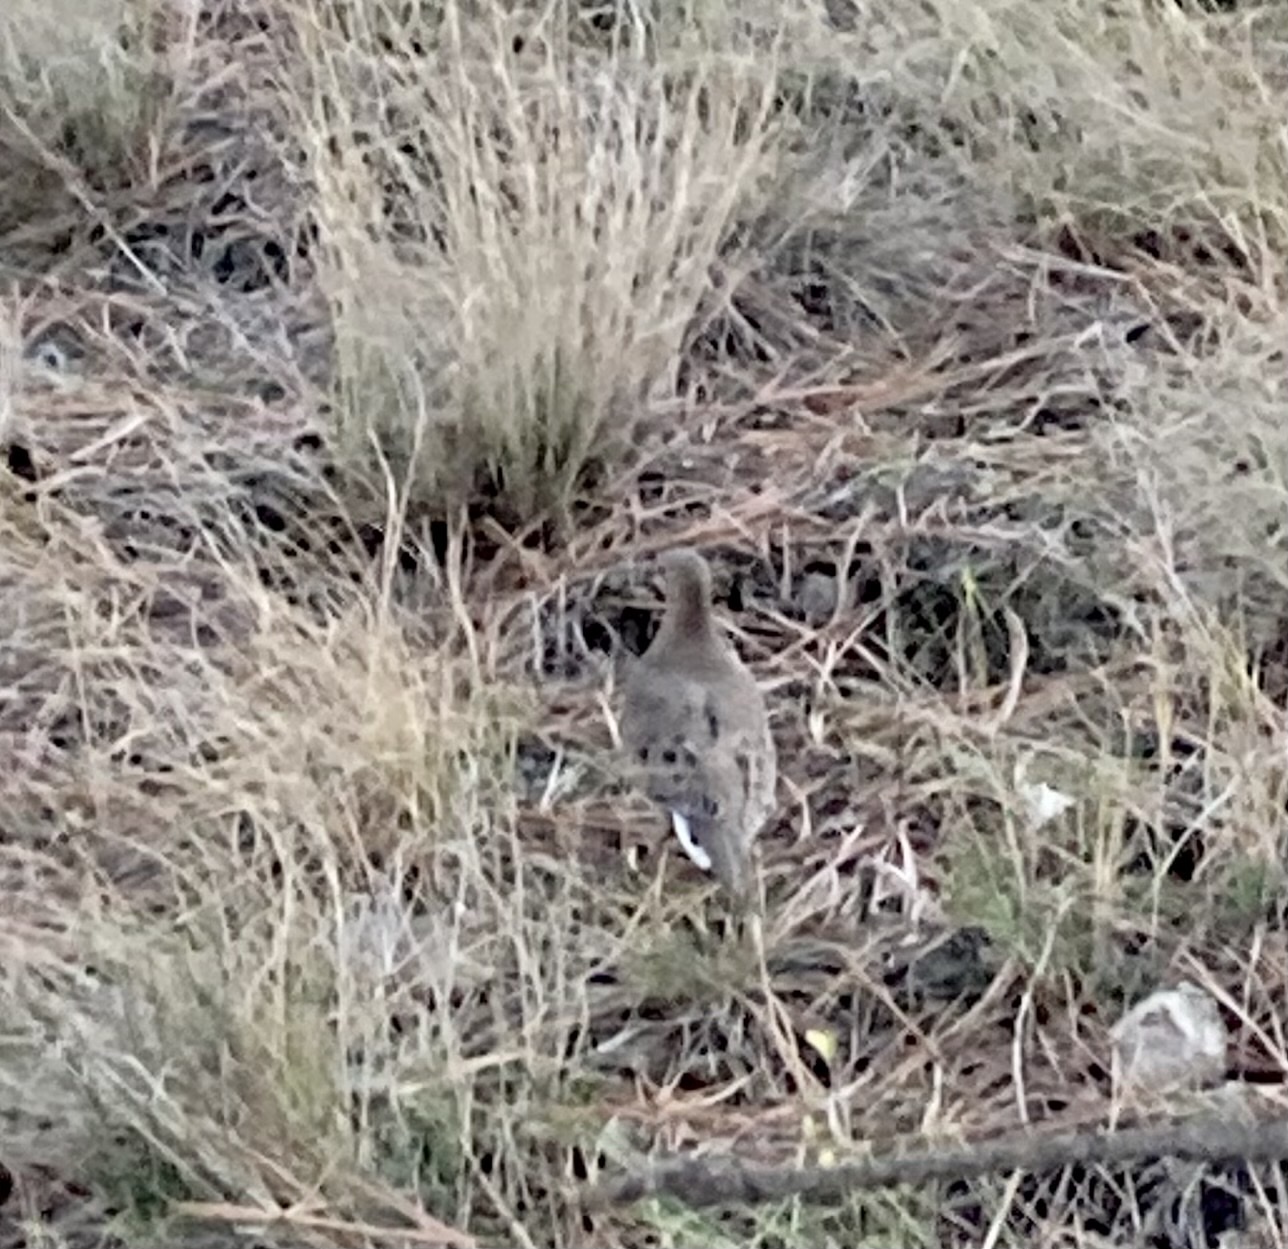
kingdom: Animalia
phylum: Chordata
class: Aves
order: Galliformes
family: Odontophoridae
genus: Callipepla
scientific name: Callipepla californica
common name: California quail
